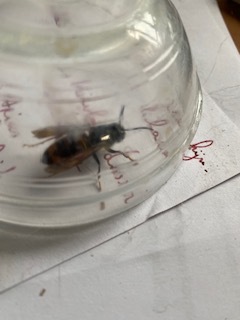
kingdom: Animalia
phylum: Arthropoda
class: Insecta
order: Hymenoptera
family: Vespidae
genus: Vespa
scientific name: Vespa velutina
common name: Asian hornet
